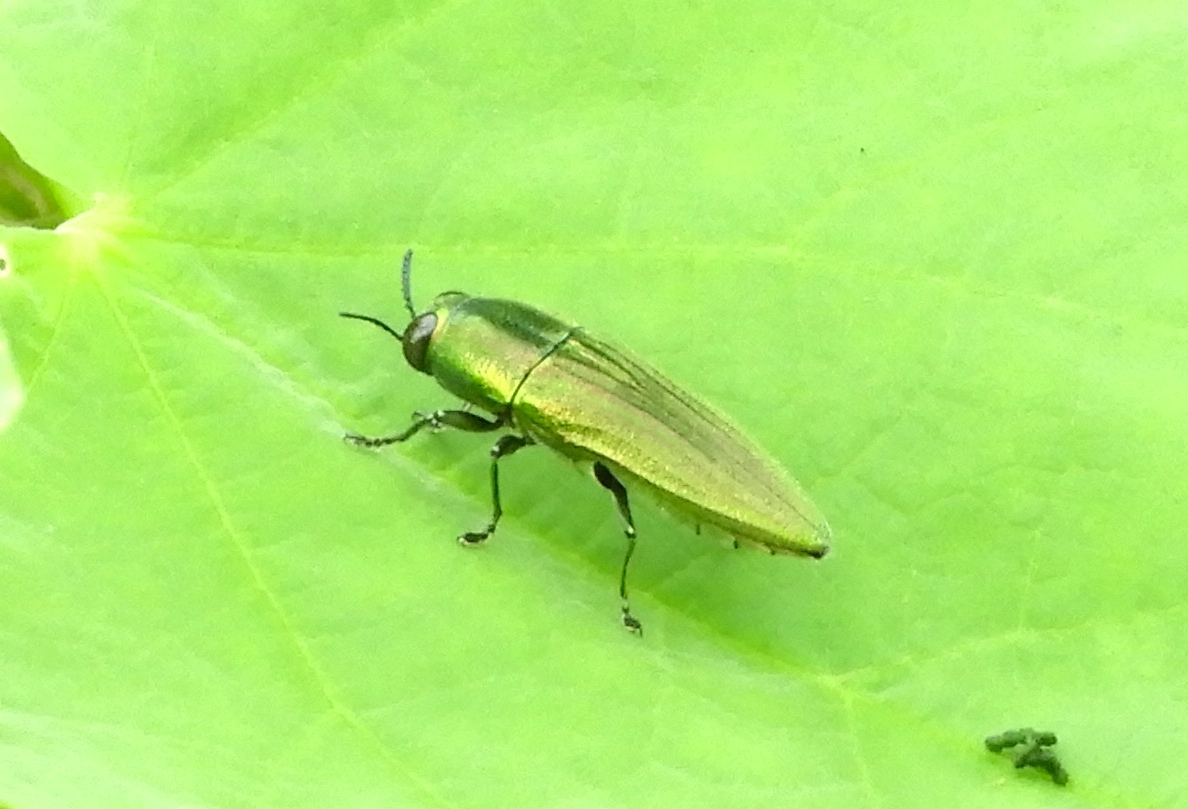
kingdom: Animalia
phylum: Arthropoda
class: Insecta
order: Coleoptera
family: Buprestidae
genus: Agaeocera
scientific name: Agaeocera scintillans
